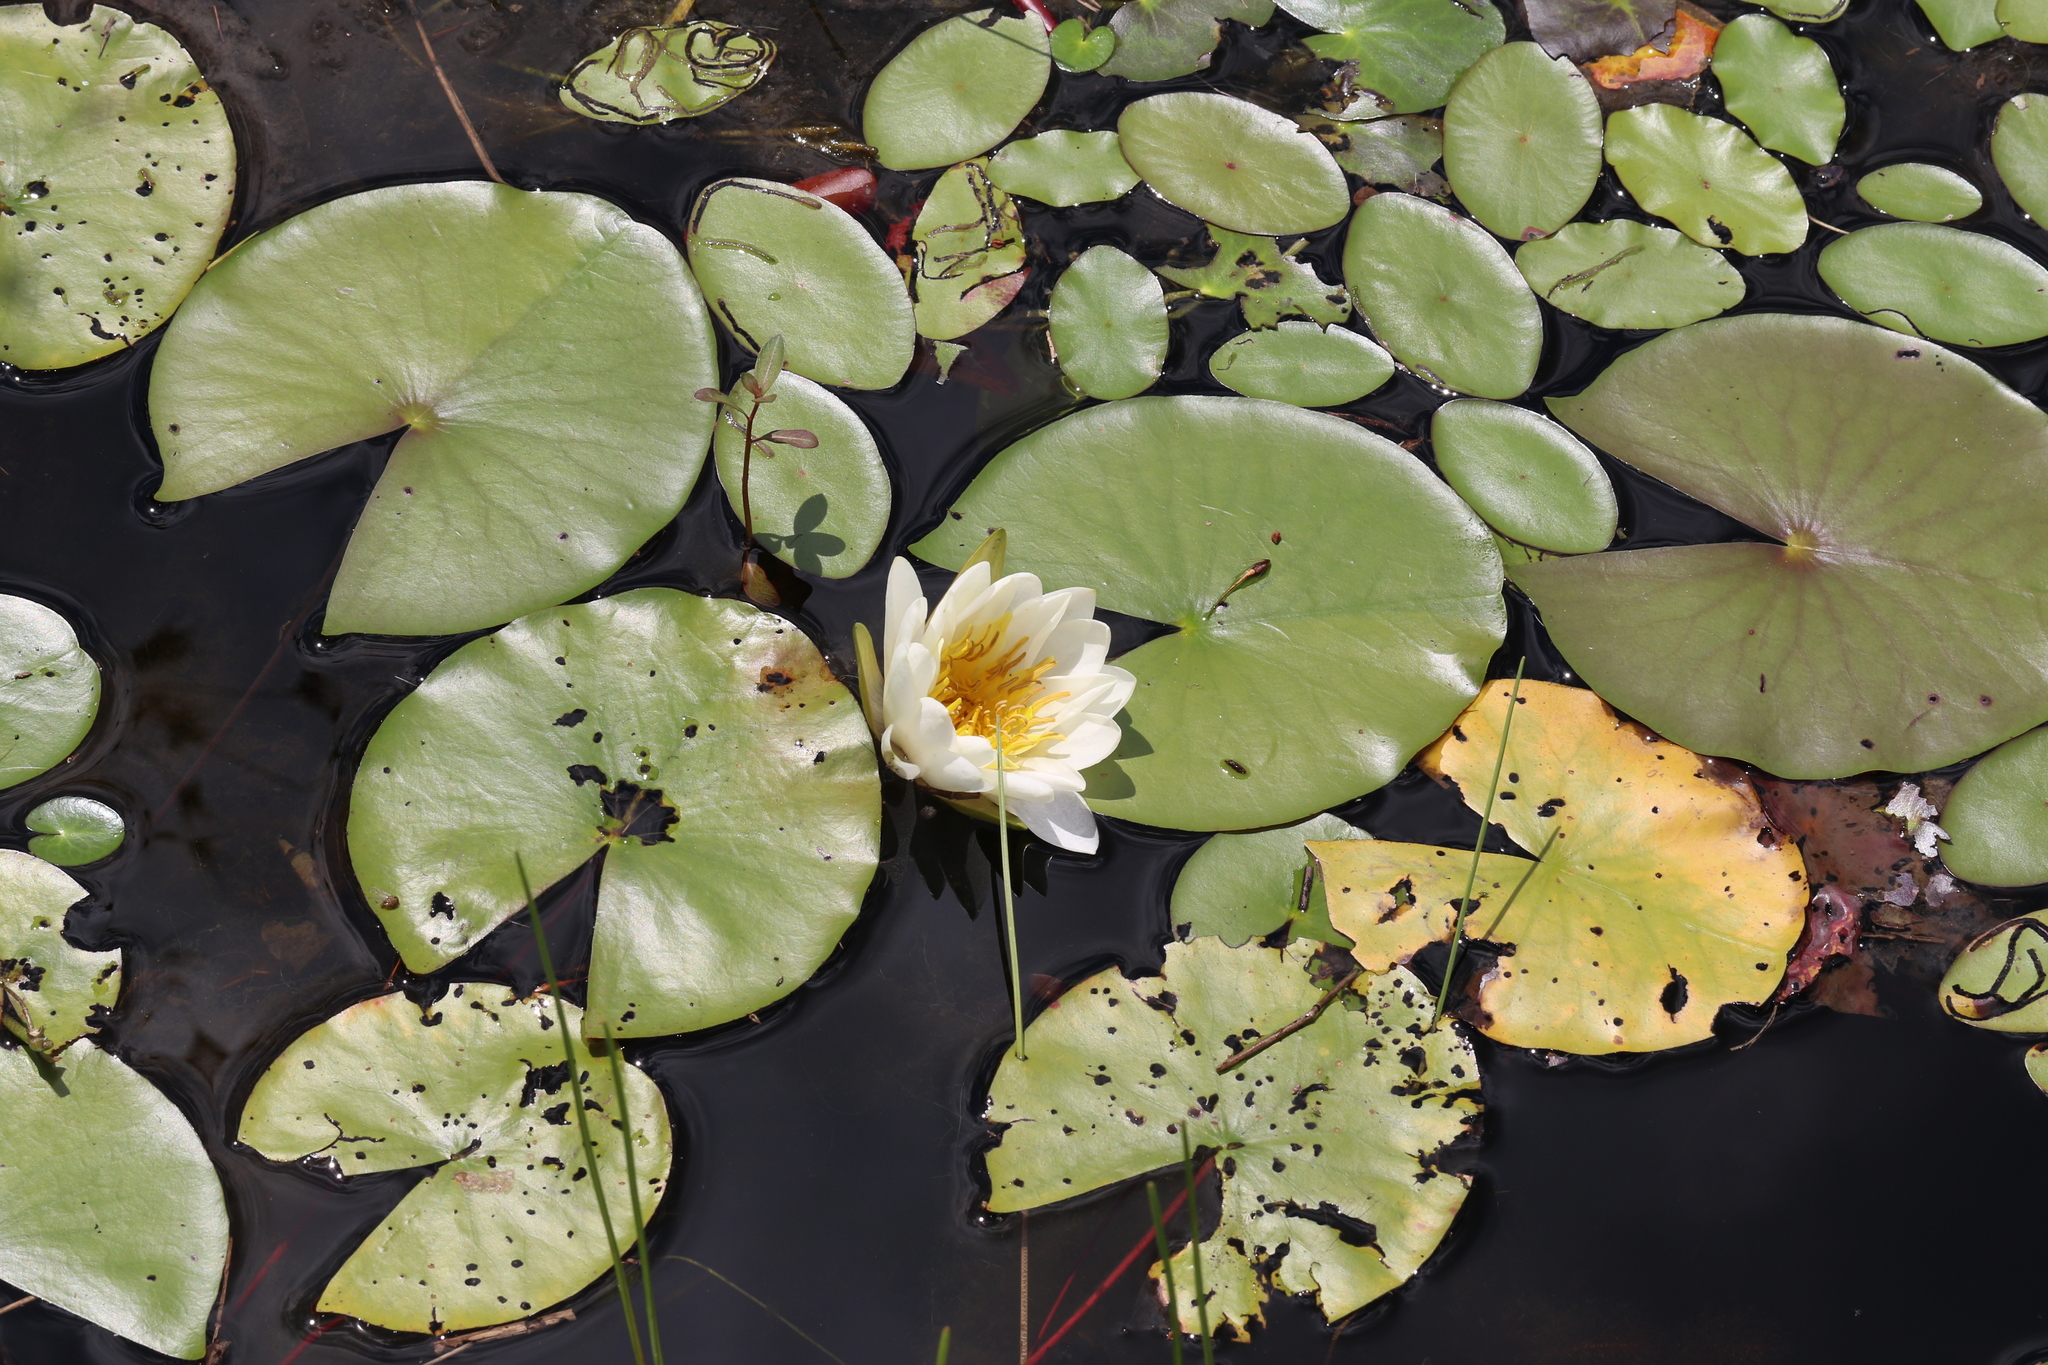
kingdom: Plantae
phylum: Tracheophyta
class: Magnoliopsida
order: Nymphaeales
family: Nymphaeaceae
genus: Nymphaea
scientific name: Nymphaea odorata
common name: Fragrant water-lily
